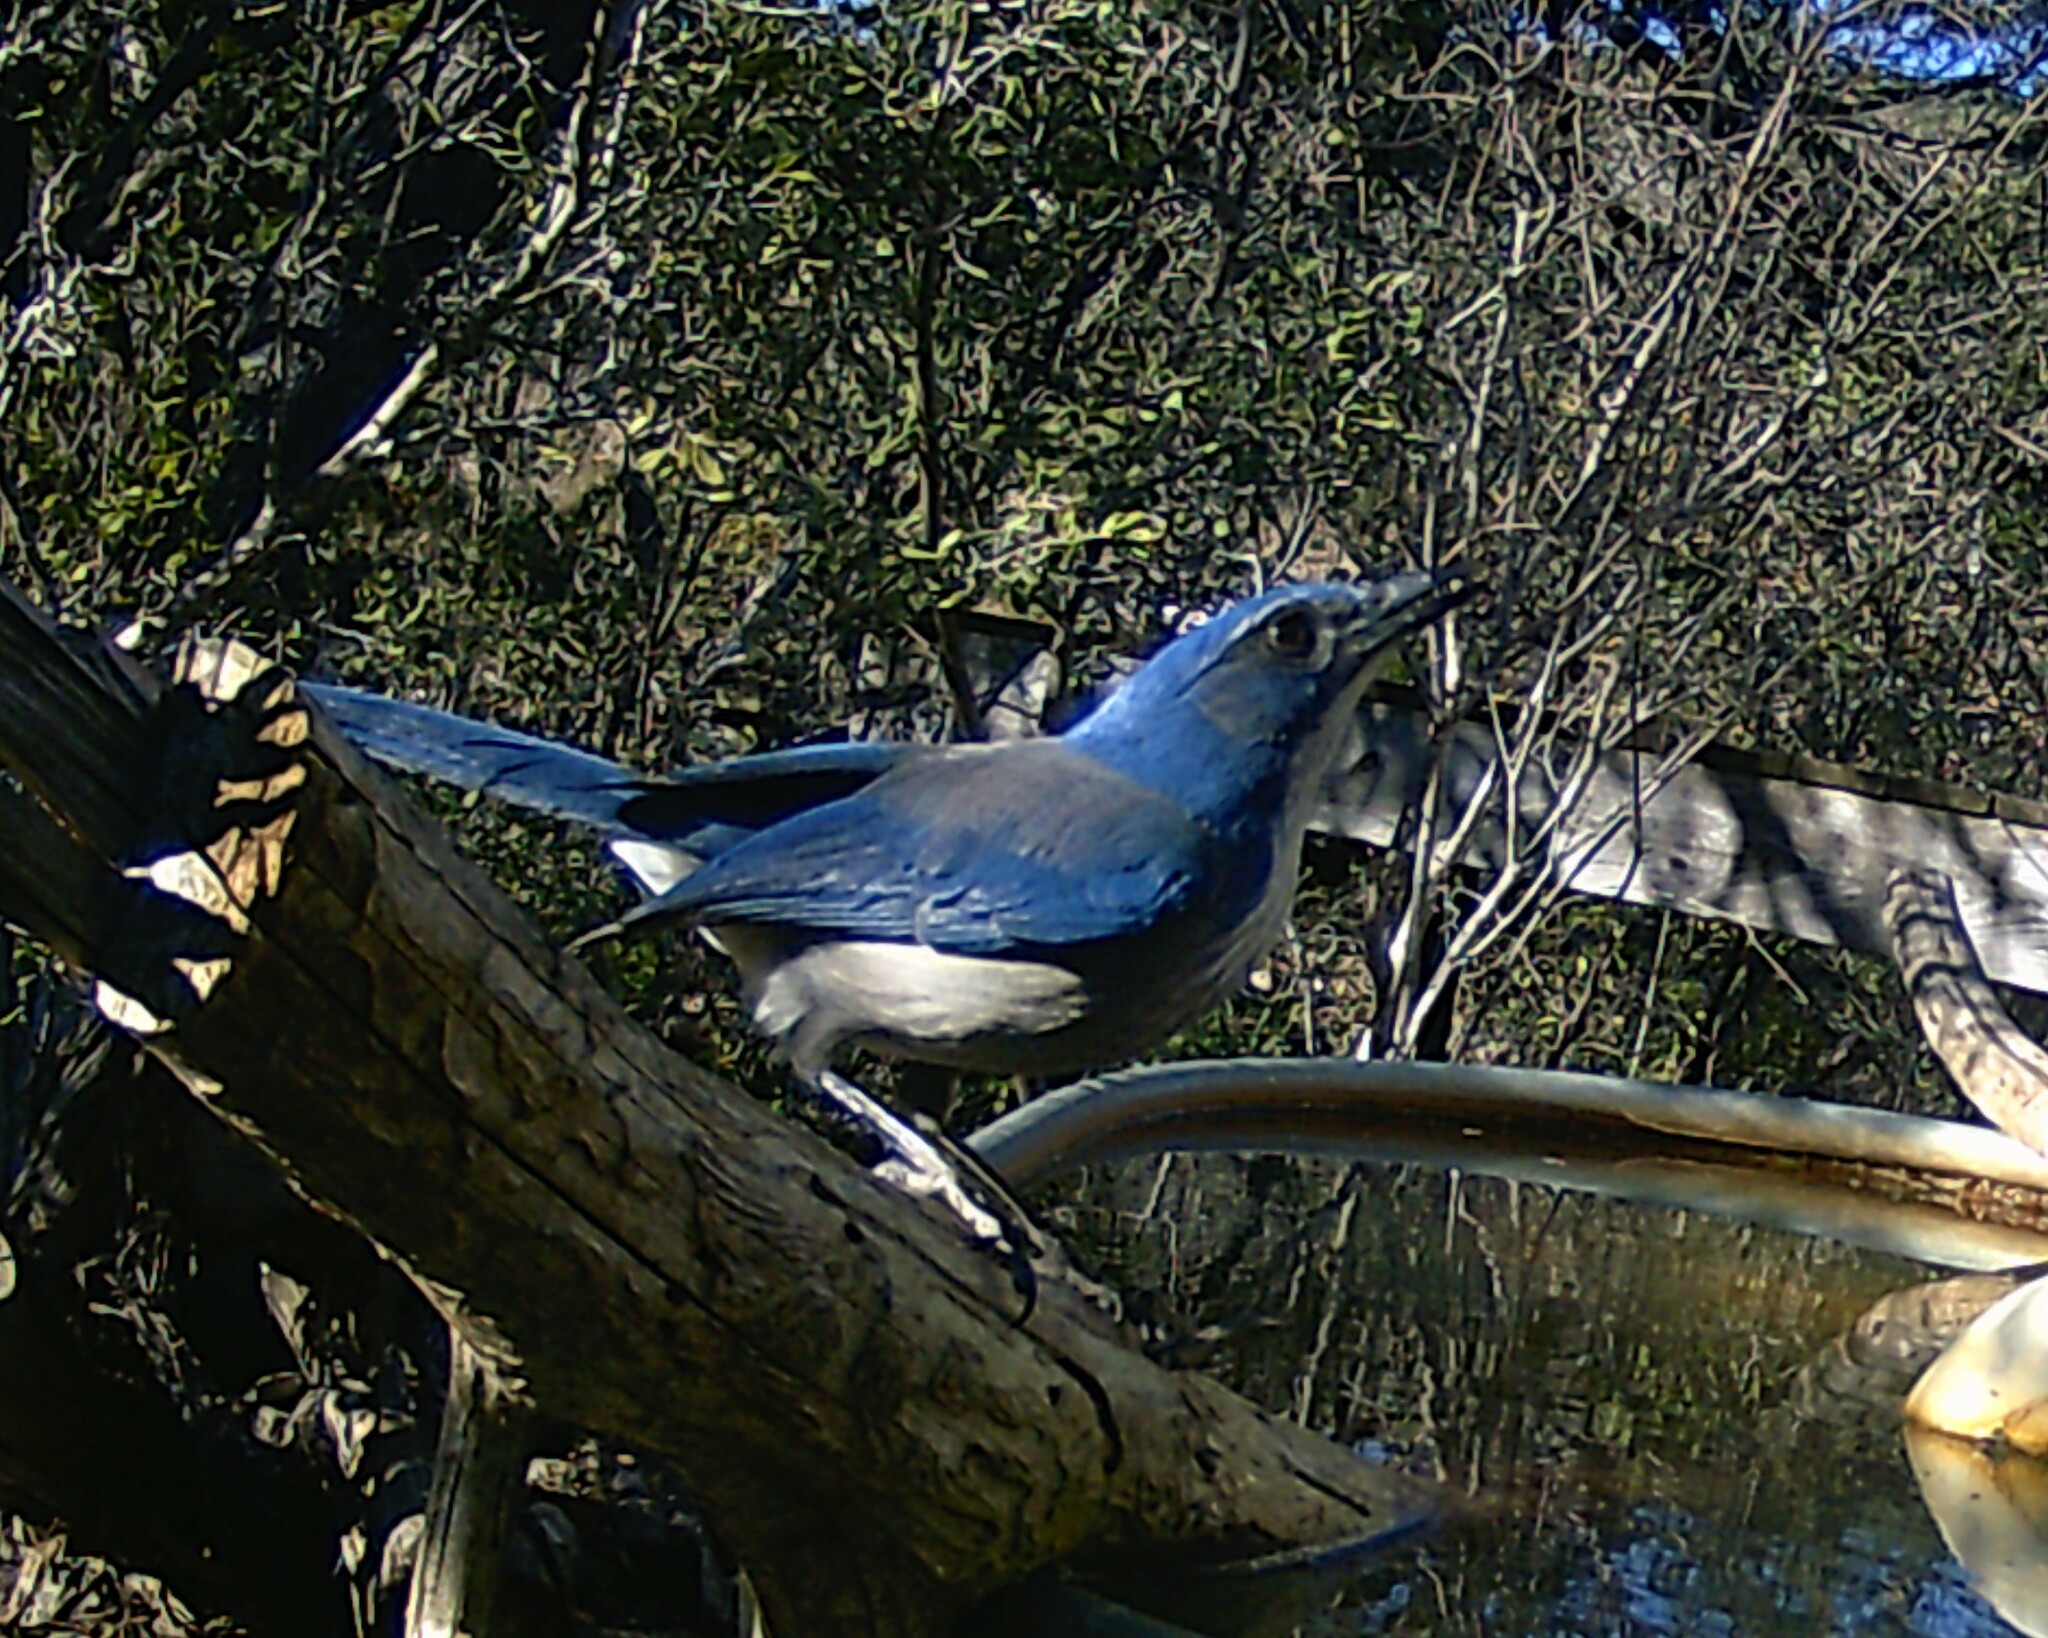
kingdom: Animalia
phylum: Chordata
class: Aves
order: Passeriformes
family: Corvidae
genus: Aphelocoma
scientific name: Aphelocoma woodhouseii
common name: Woodhouse's scrub-jay
